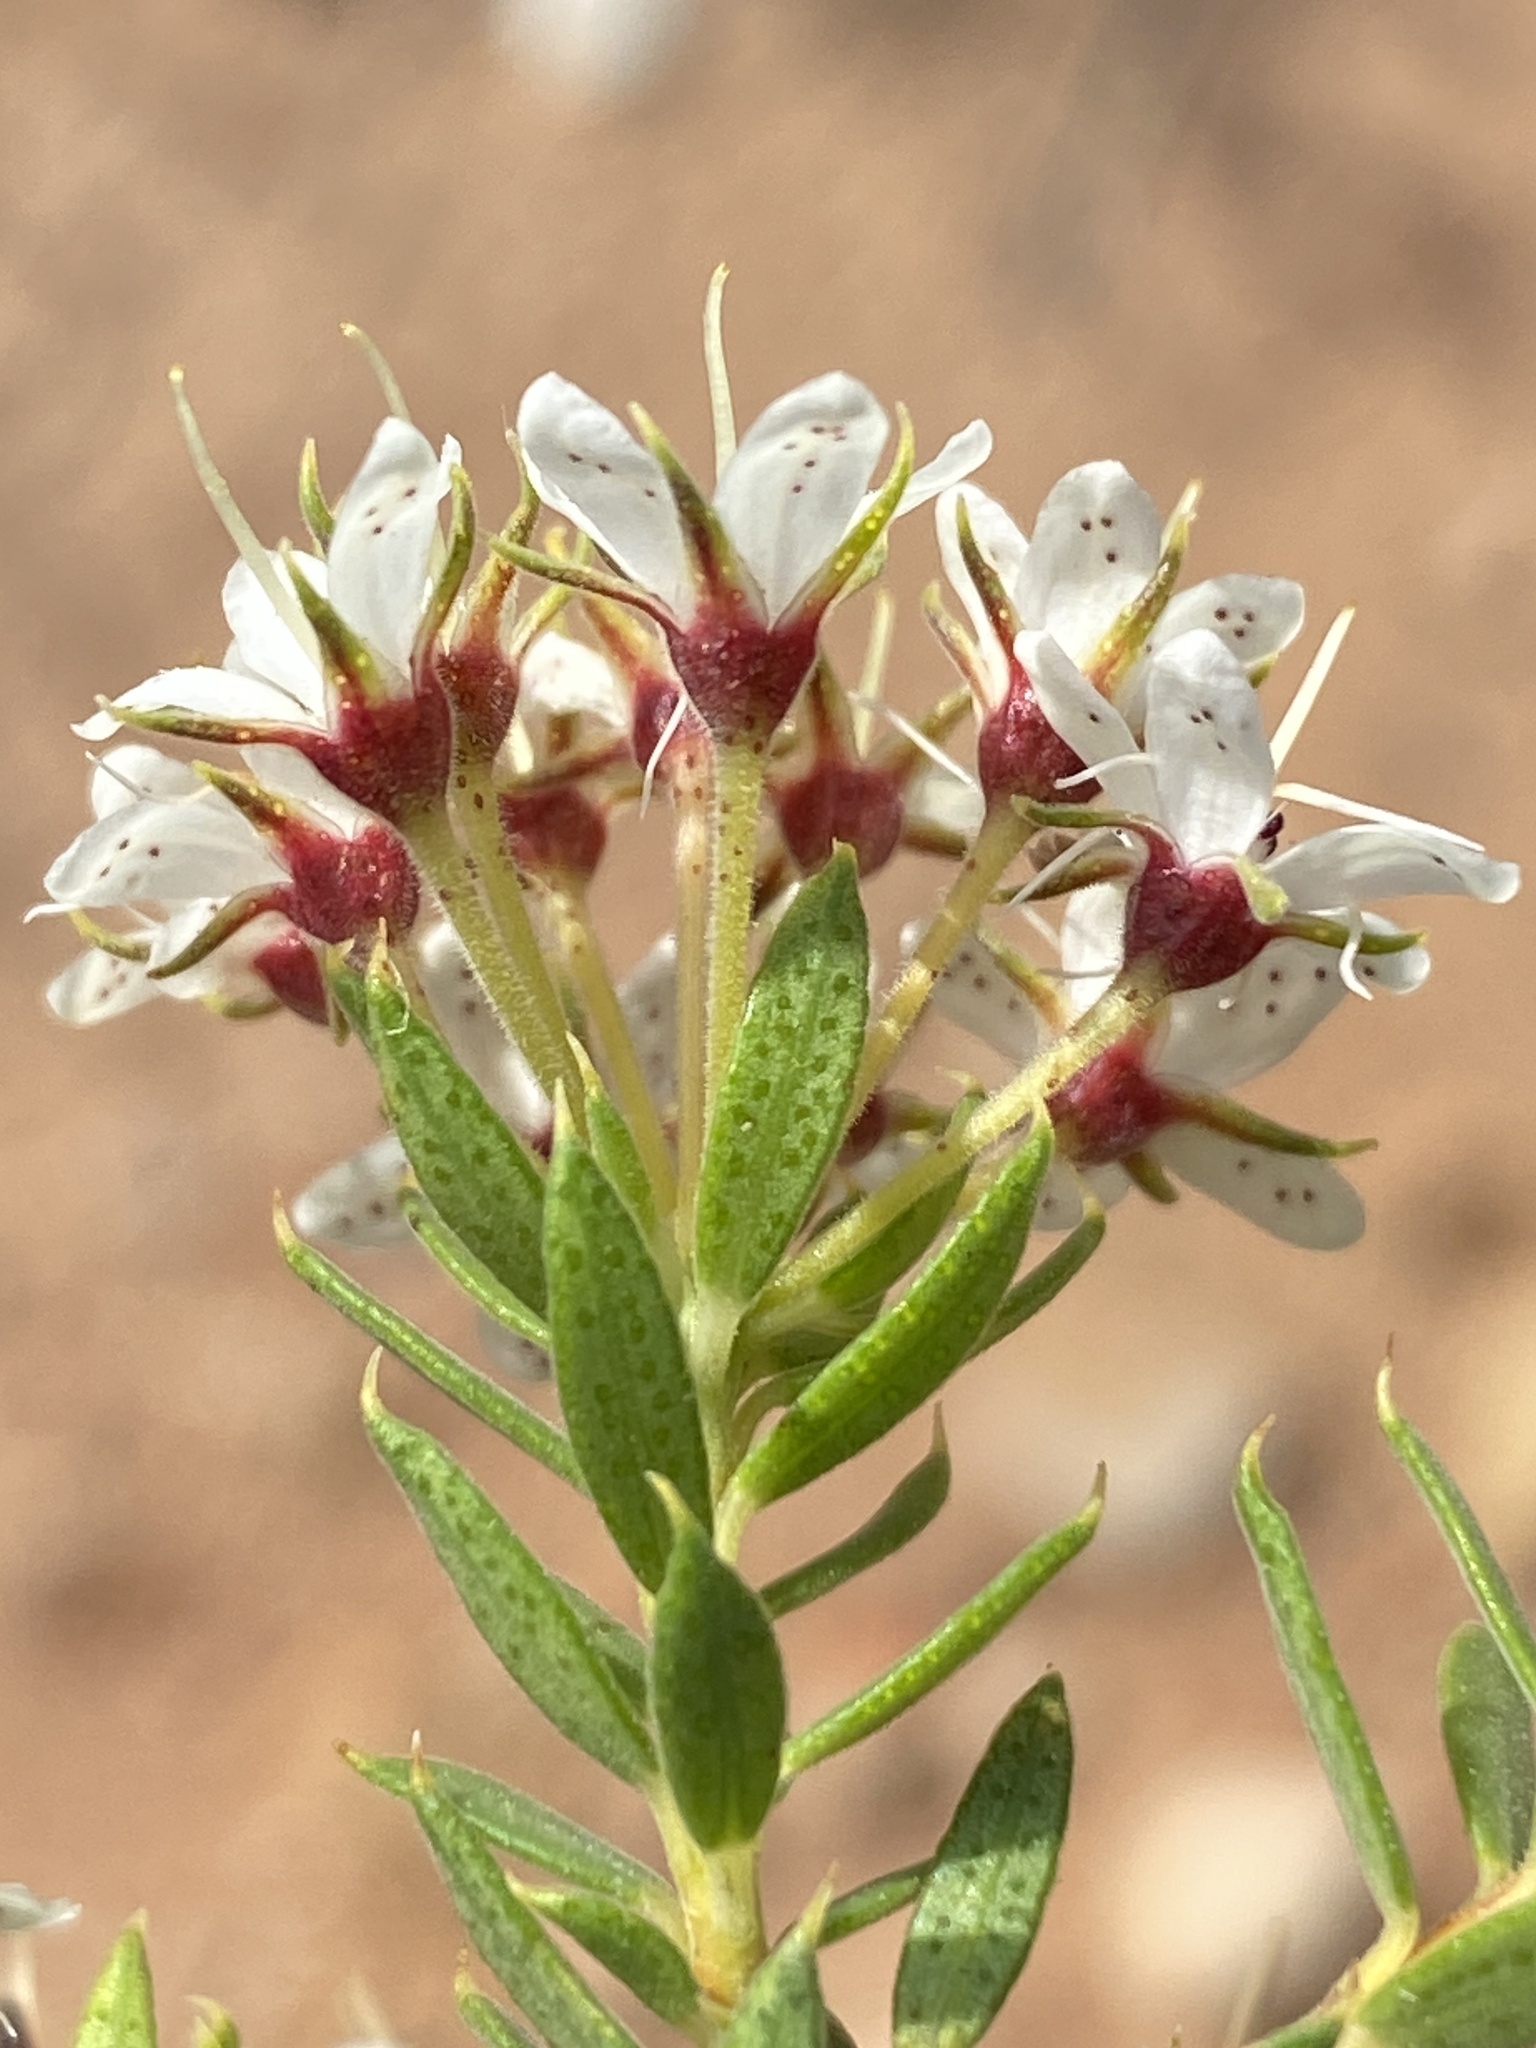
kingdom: Plantae
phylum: Tracheophyta
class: Magnoliopsida
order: Sapindales
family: Rutaceae
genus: Agathosma
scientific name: Agathosma puberula
